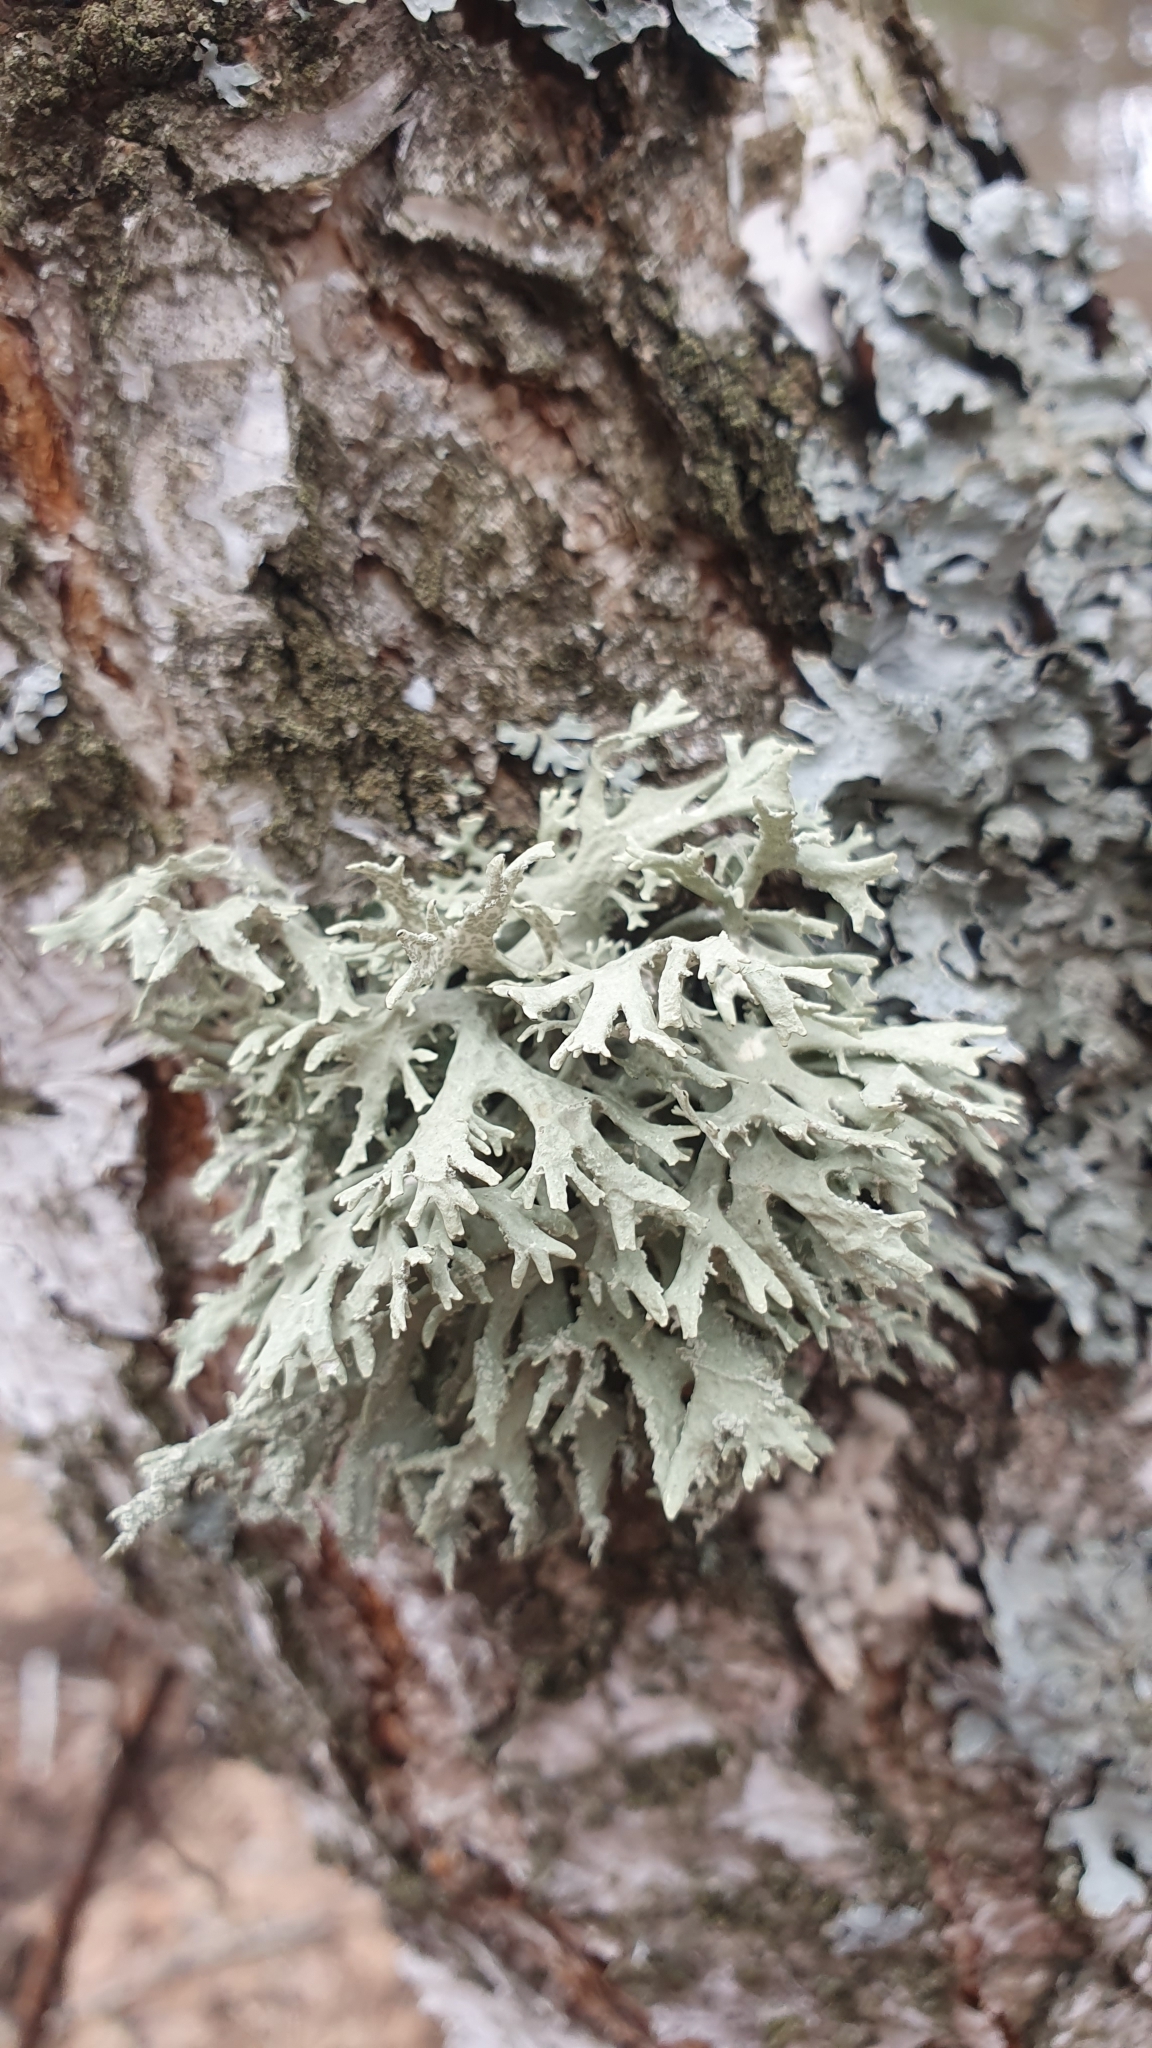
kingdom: Fungi
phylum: Ascomycota
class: Lecanoromycetes
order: Lecanorales
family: Parmeliaceae
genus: Evernia
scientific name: Evernia prunastri
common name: Oak moss
